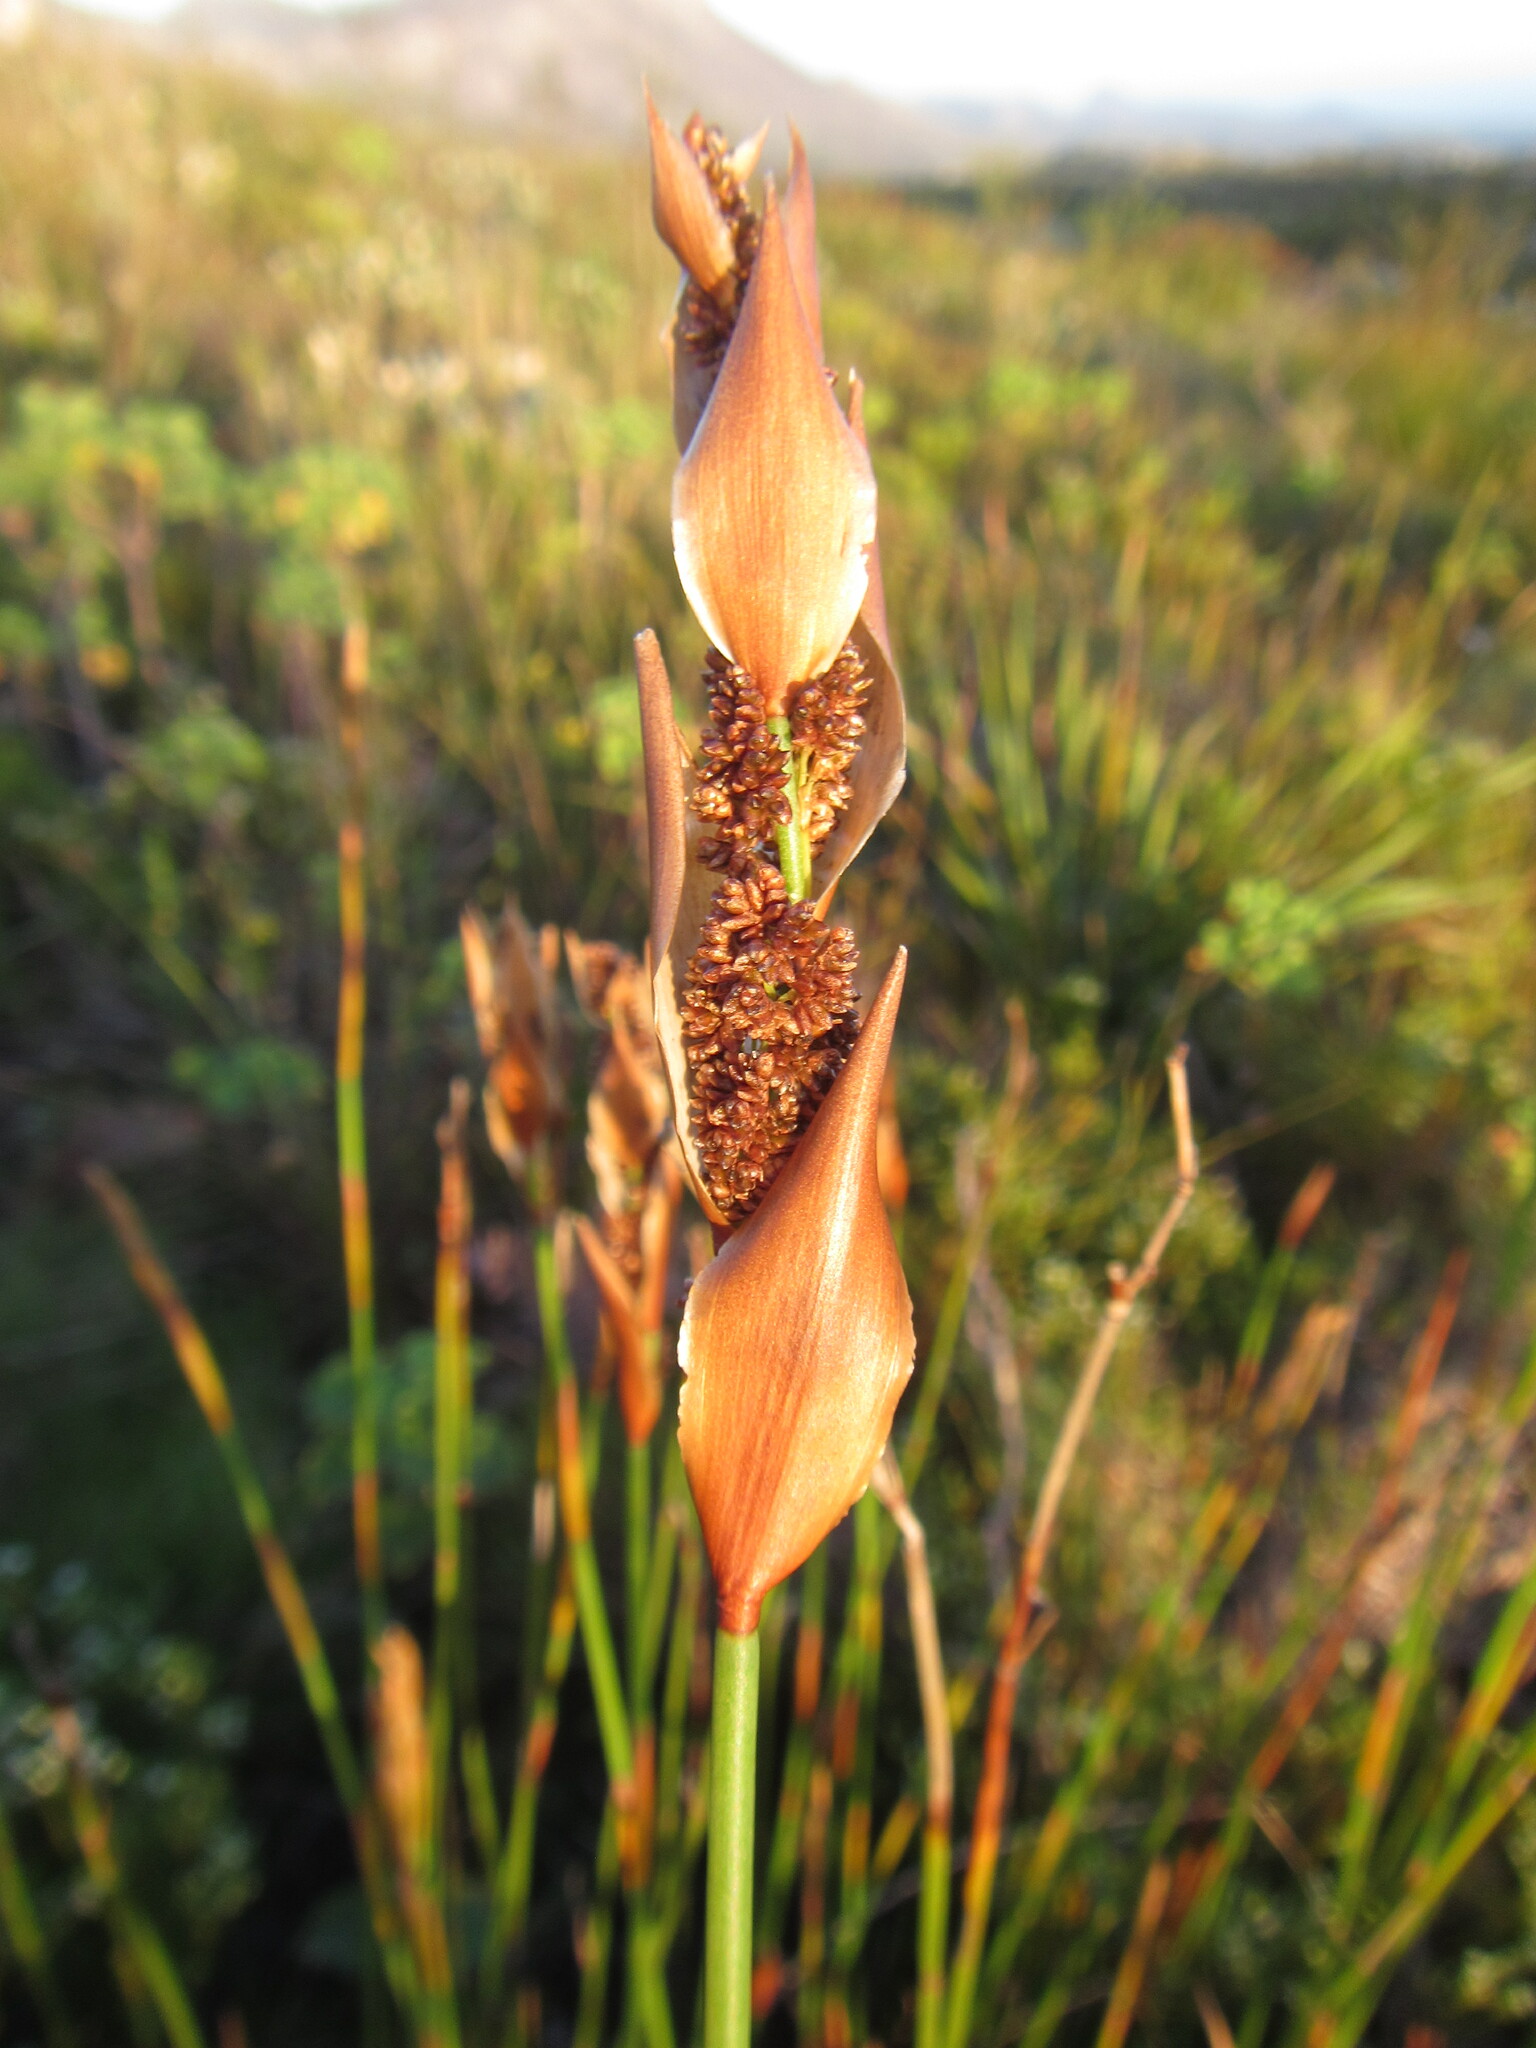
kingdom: Plantae
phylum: Tracheophyta
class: Liliopsida
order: Poales
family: Restionaceae
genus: Elegia
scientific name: Elegia racemosa
